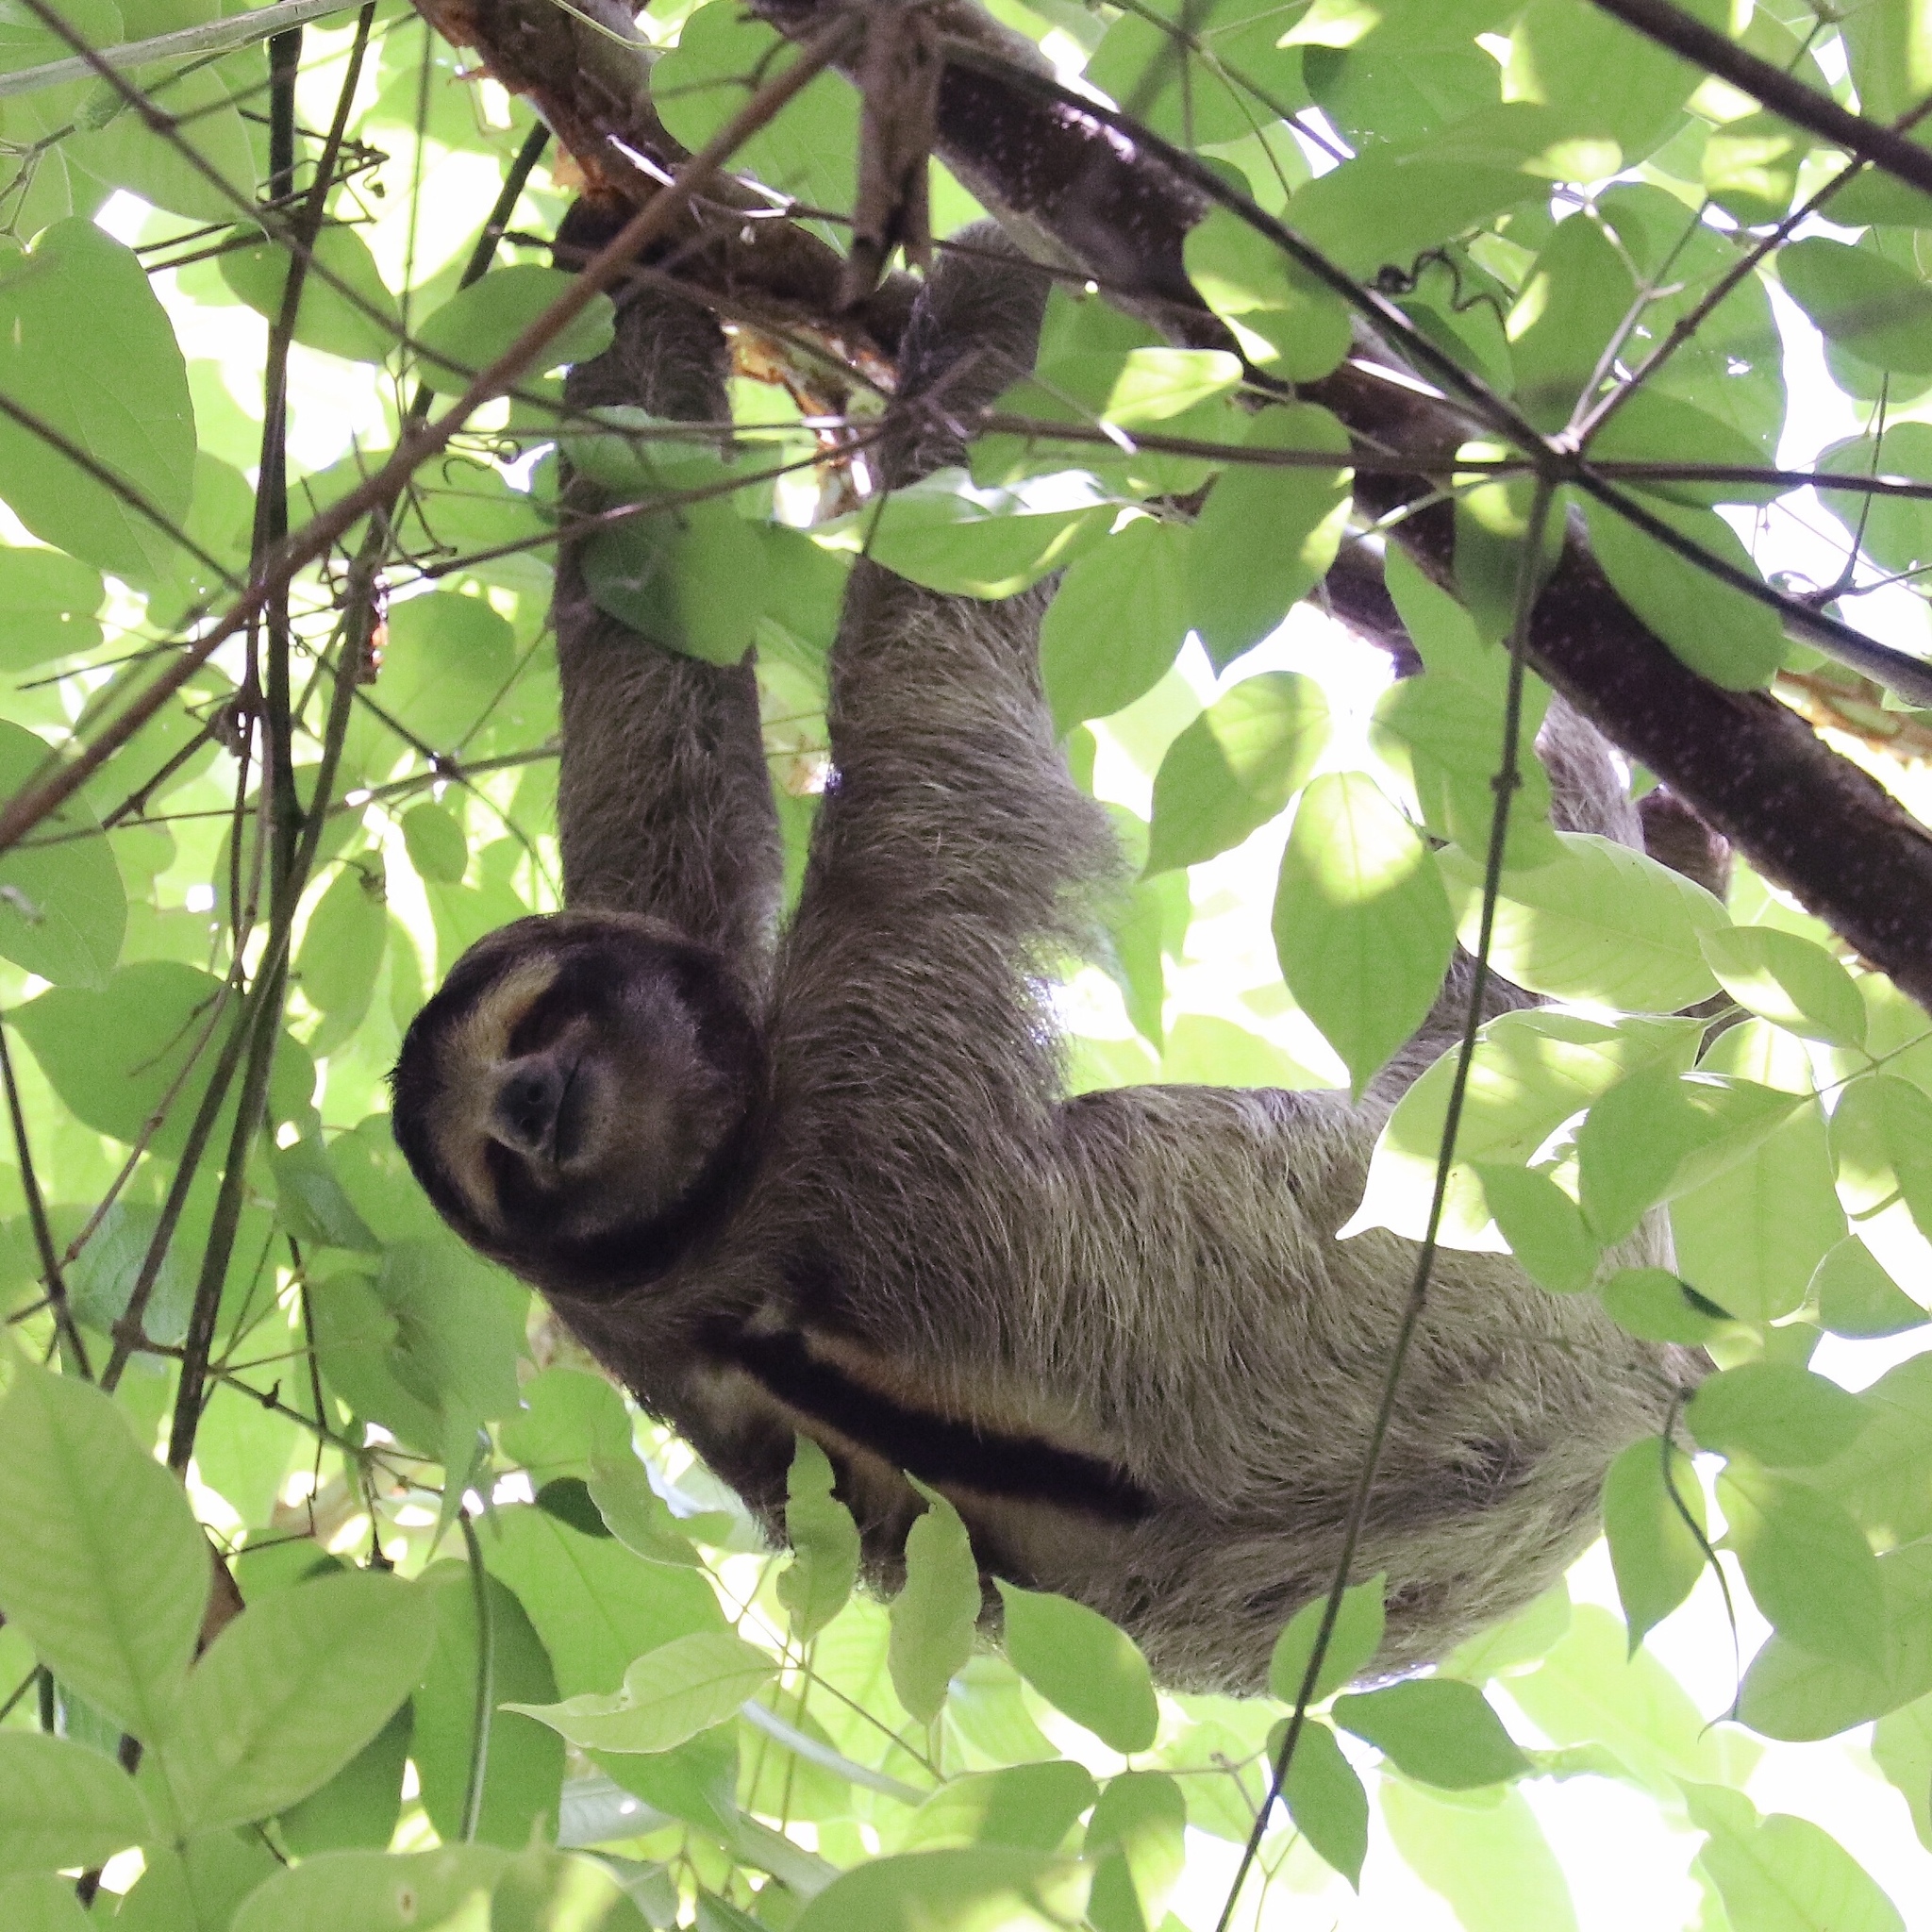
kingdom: Animalia
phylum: Chordata
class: Mammalia
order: Pilosa
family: Bradypodidae
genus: Bradypus
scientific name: Bradypus variegatus
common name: Brown-throated three-toed sloth
